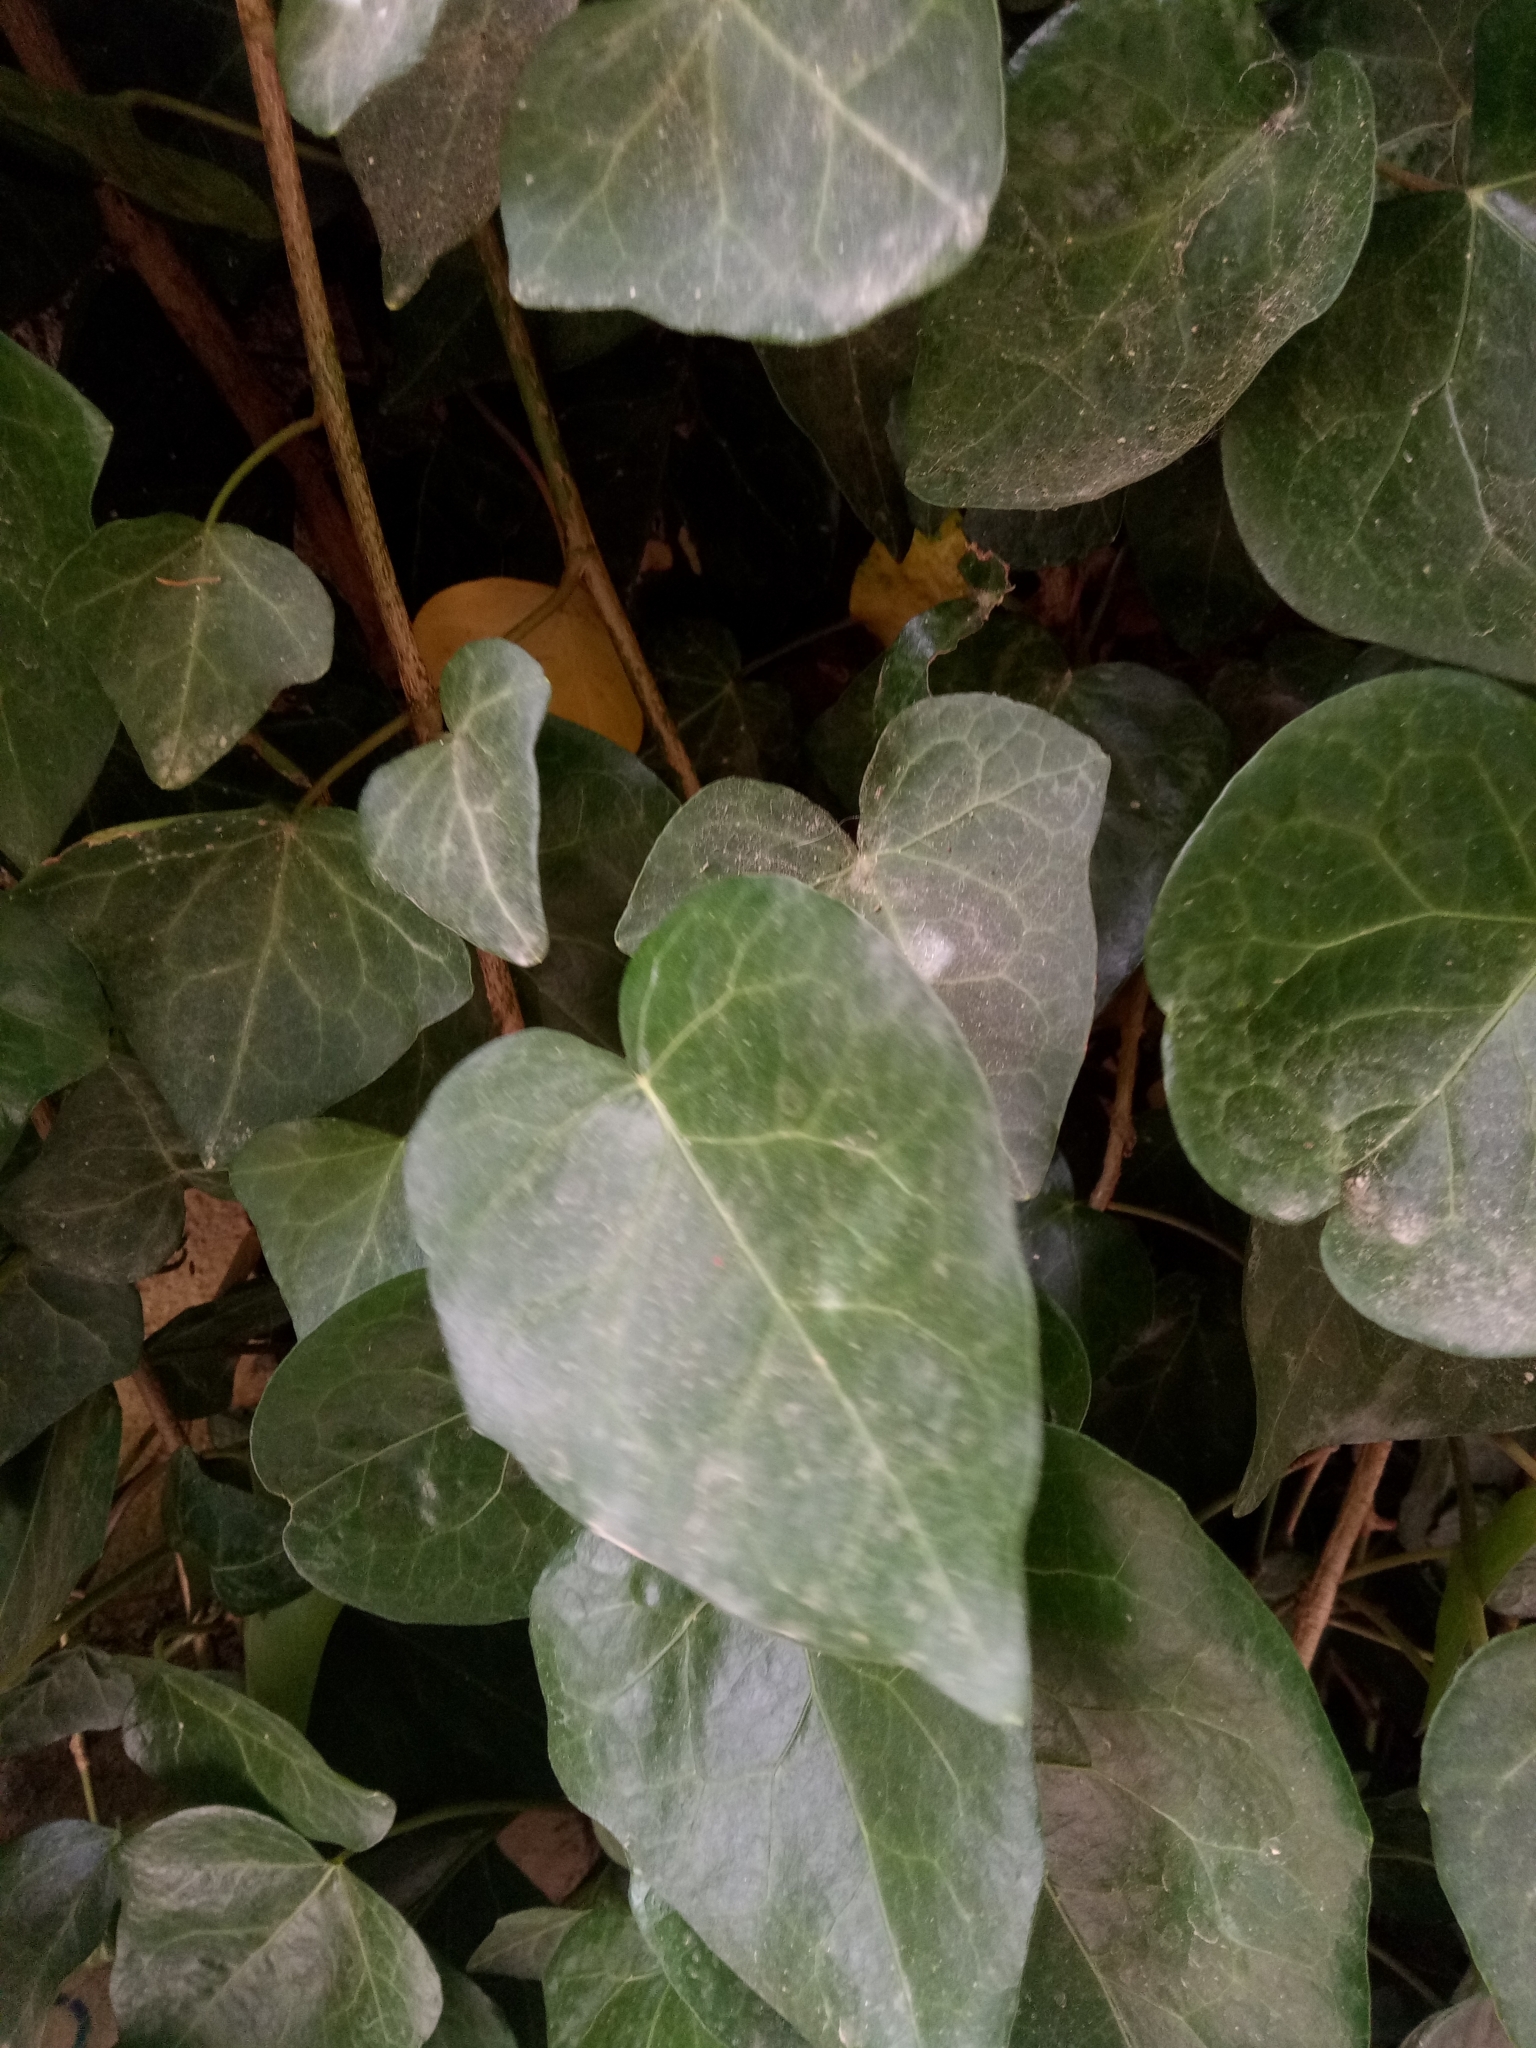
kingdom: Plantae
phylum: Tracheophyta
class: Magnoliopsida
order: Apiales
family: Araliaceae
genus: Hedera
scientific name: Hedera algeriensis
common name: Algerian ivy
